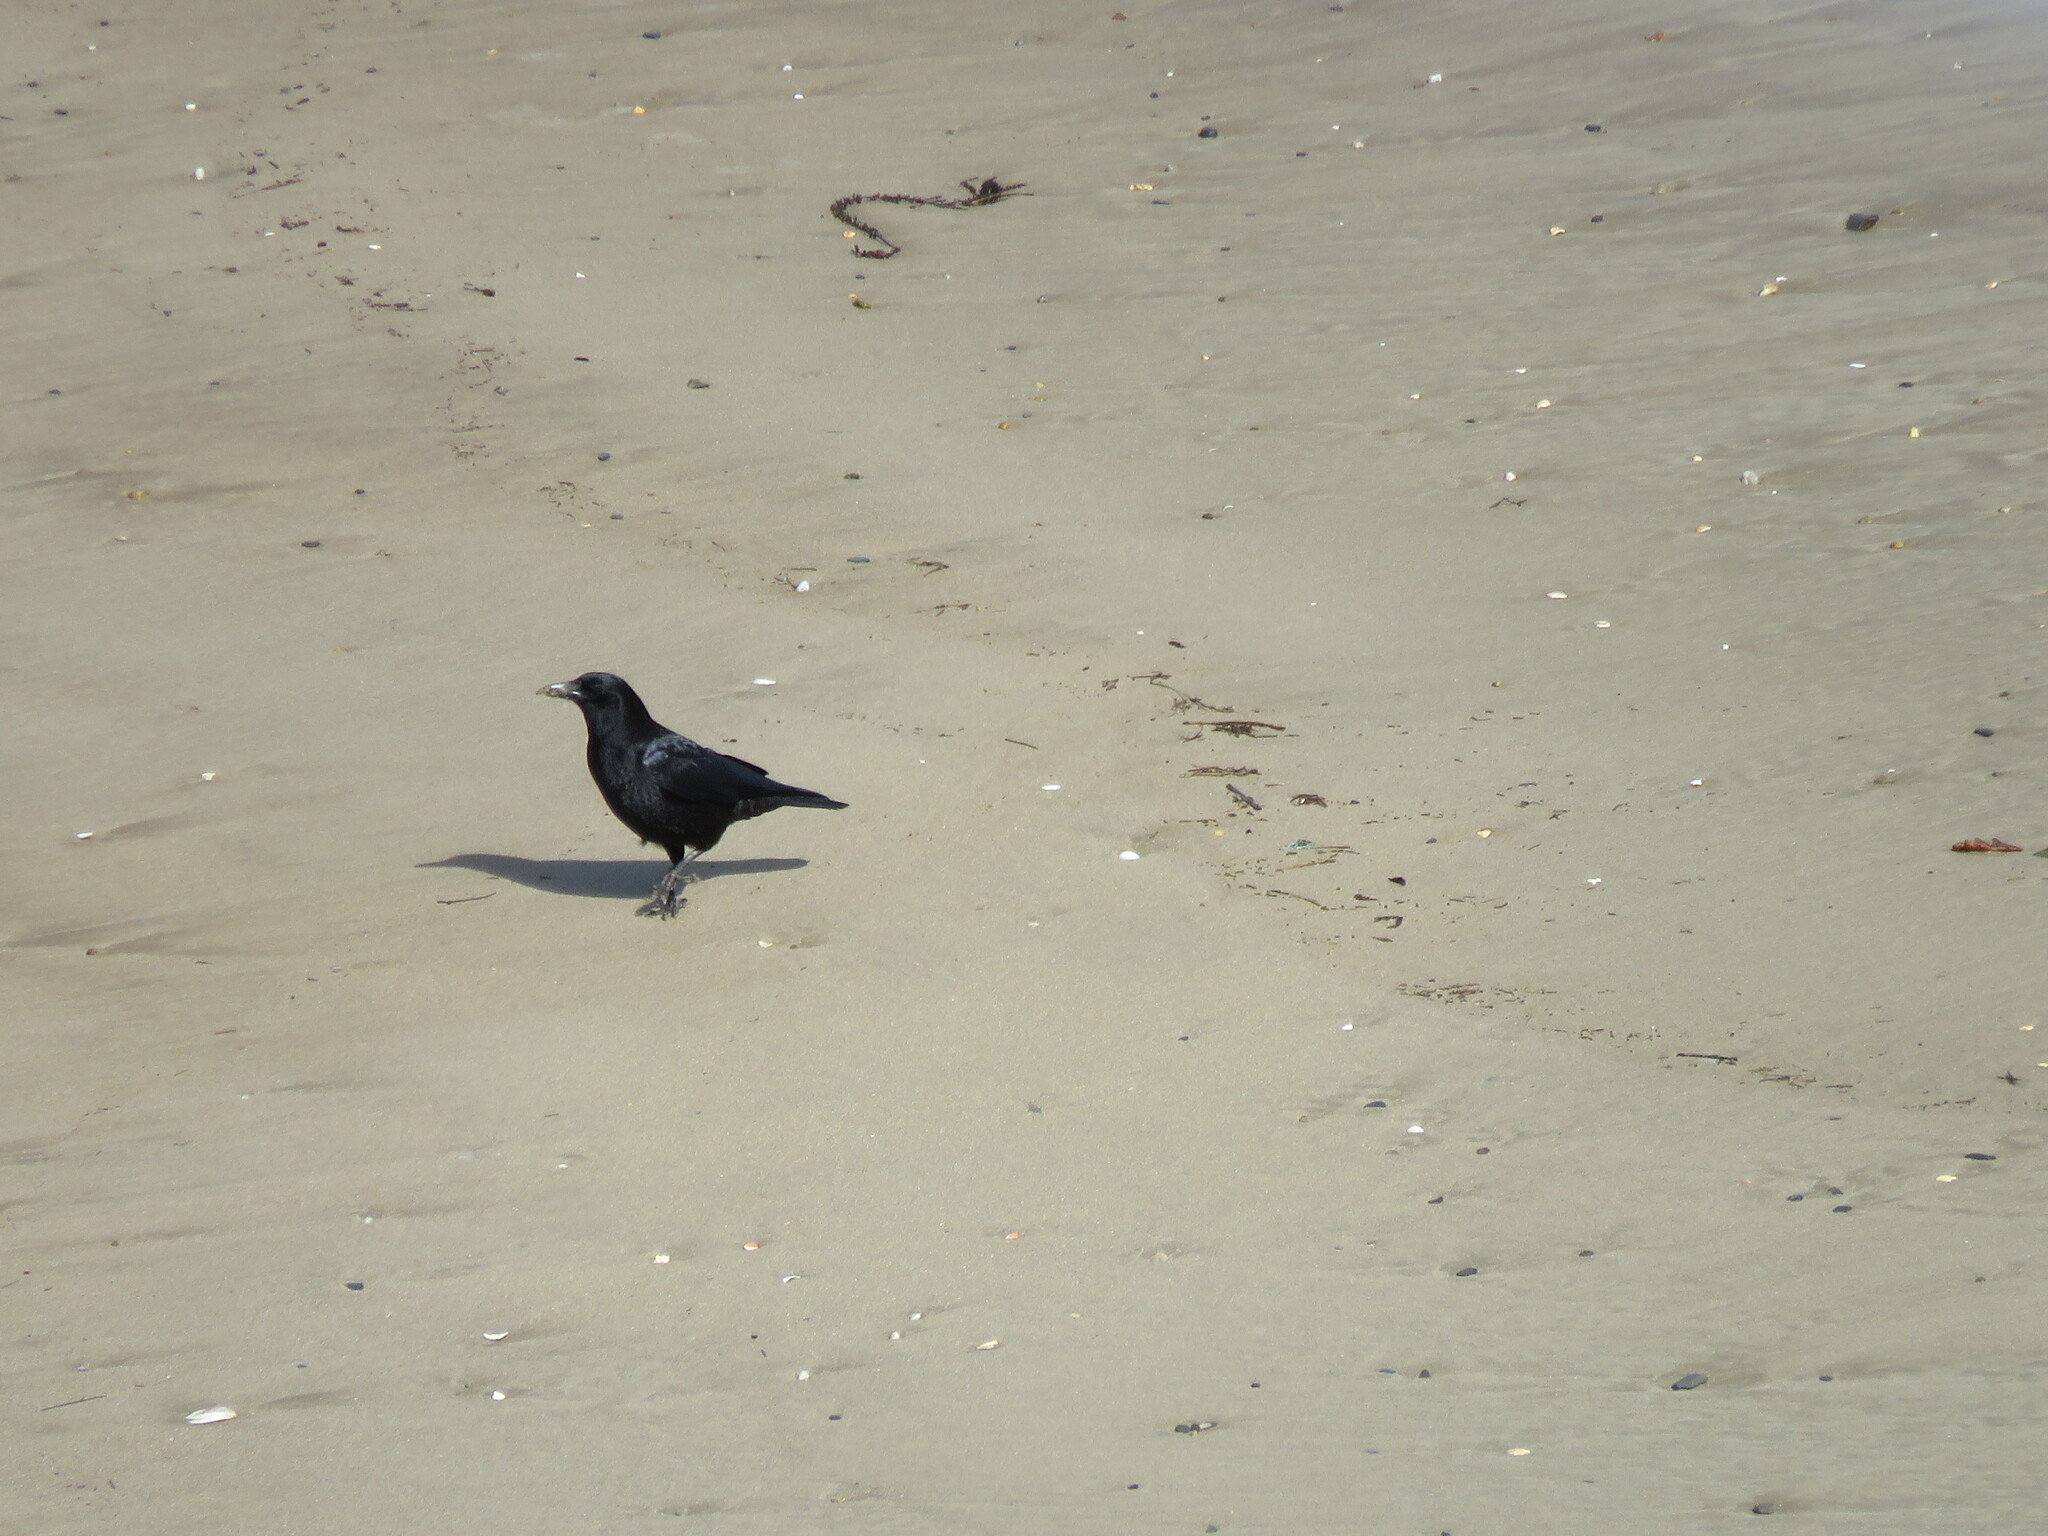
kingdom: Animalia
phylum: Chordata
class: Aves
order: Passeriformes
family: Corvidae
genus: Corvus
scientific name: Corvus corone
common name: Carrion crow
